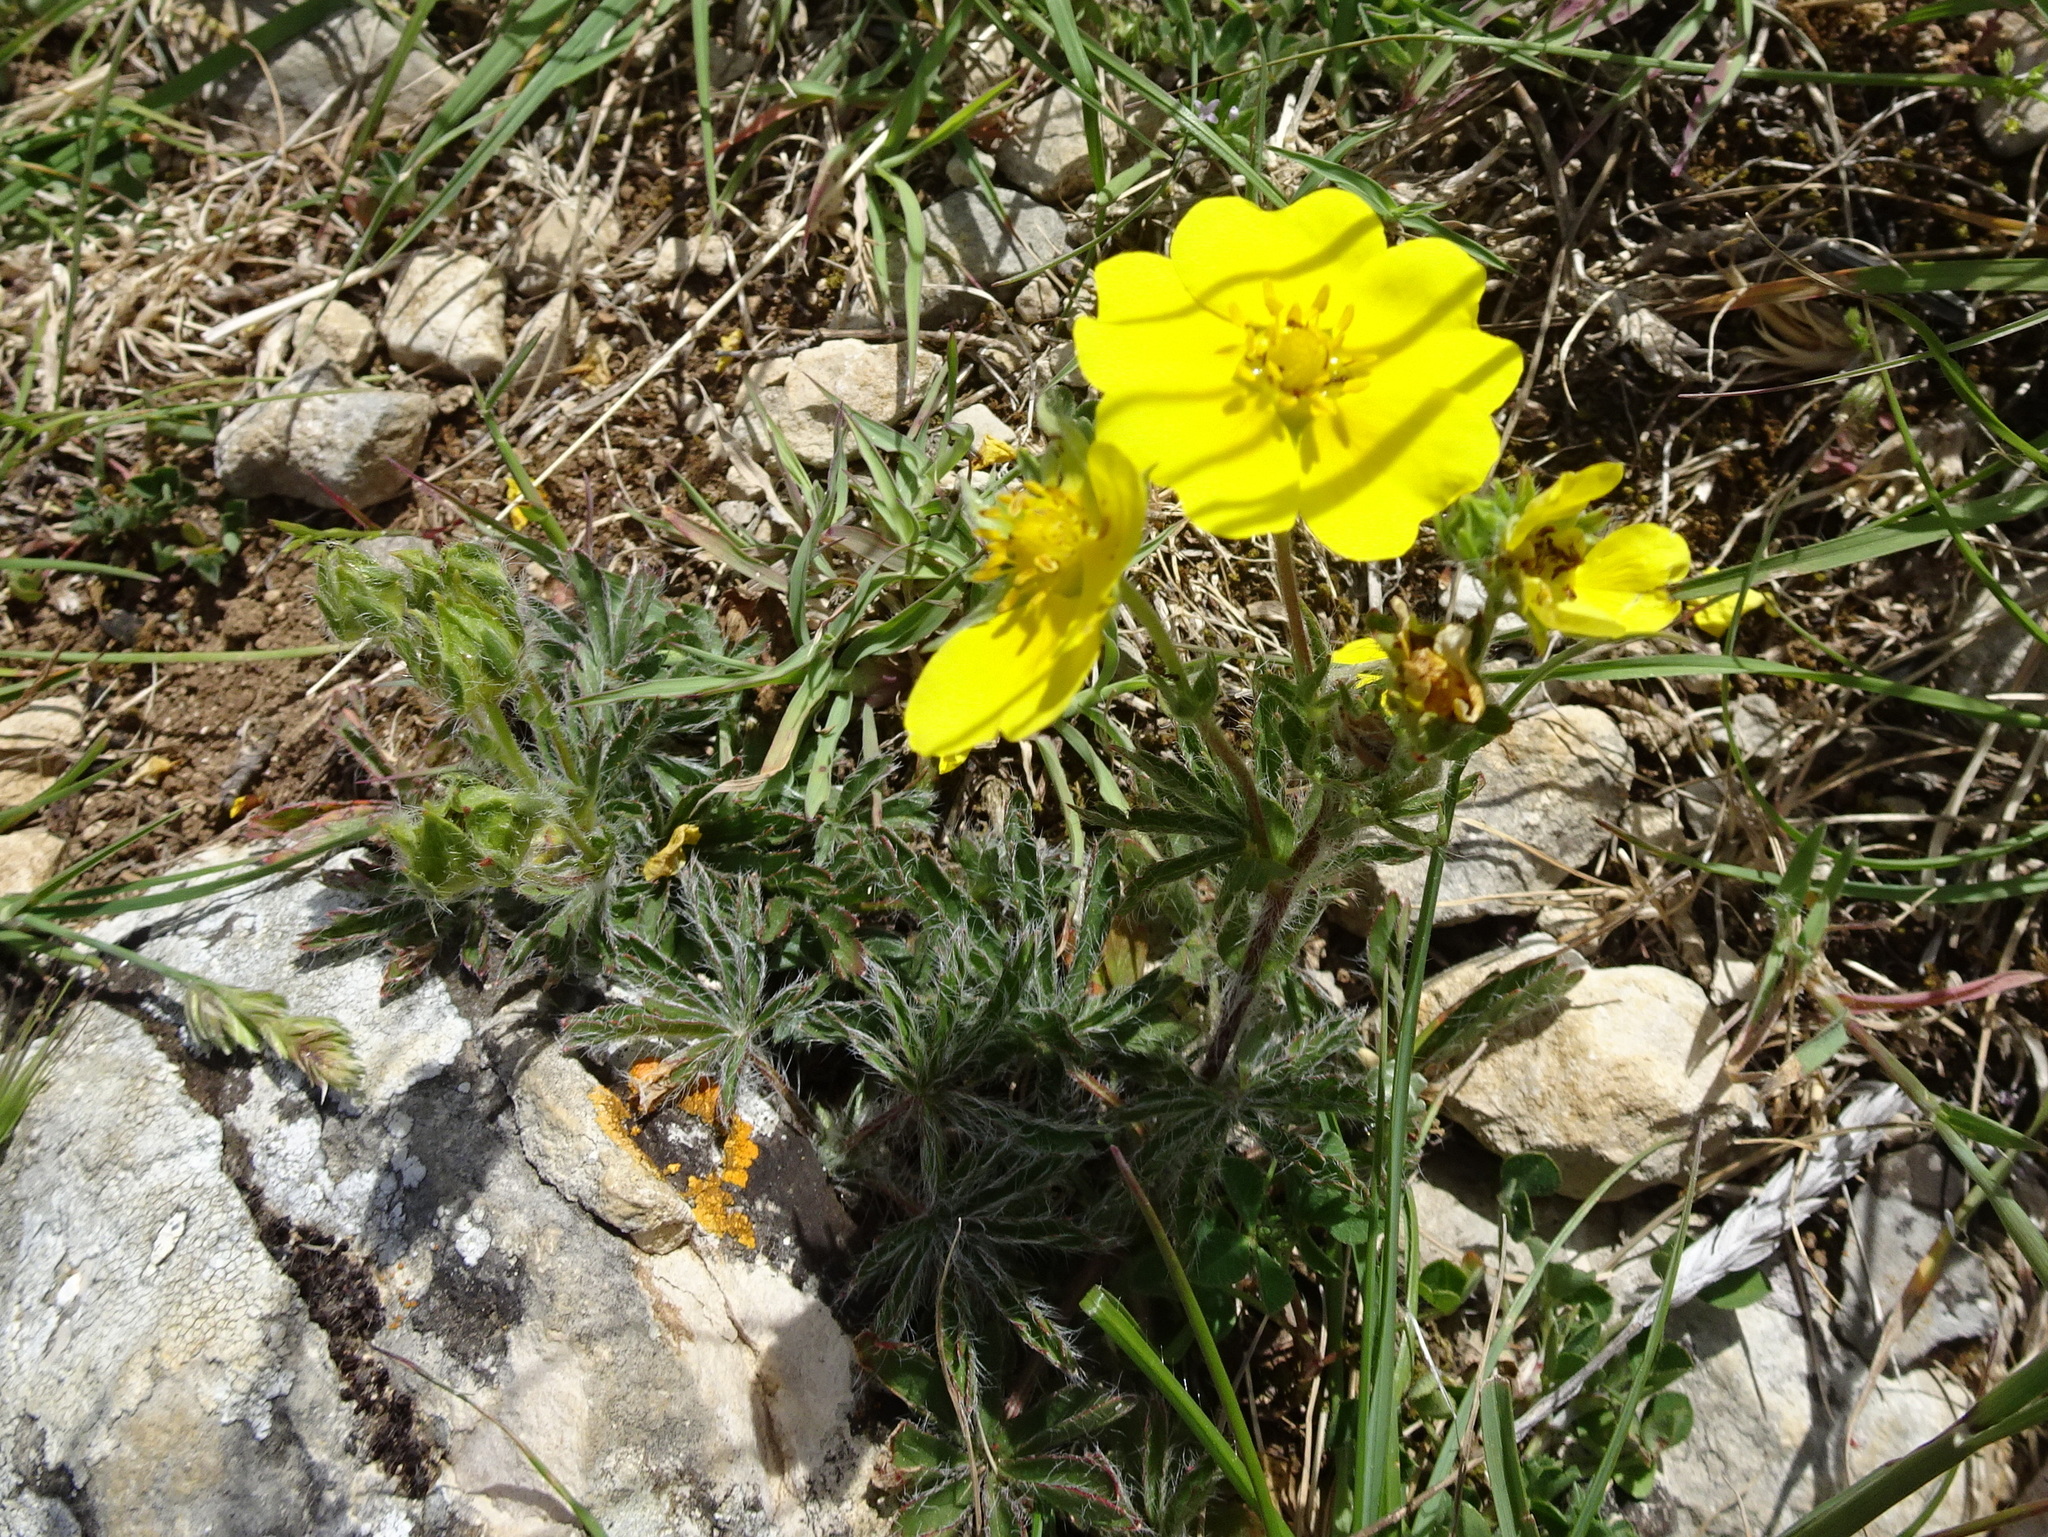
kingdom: Plantae
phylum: Tracheophyta
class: Magnoliopsida
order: Rosales
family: Rosaceae
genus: Potentilla
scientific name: Potentilla hirta
